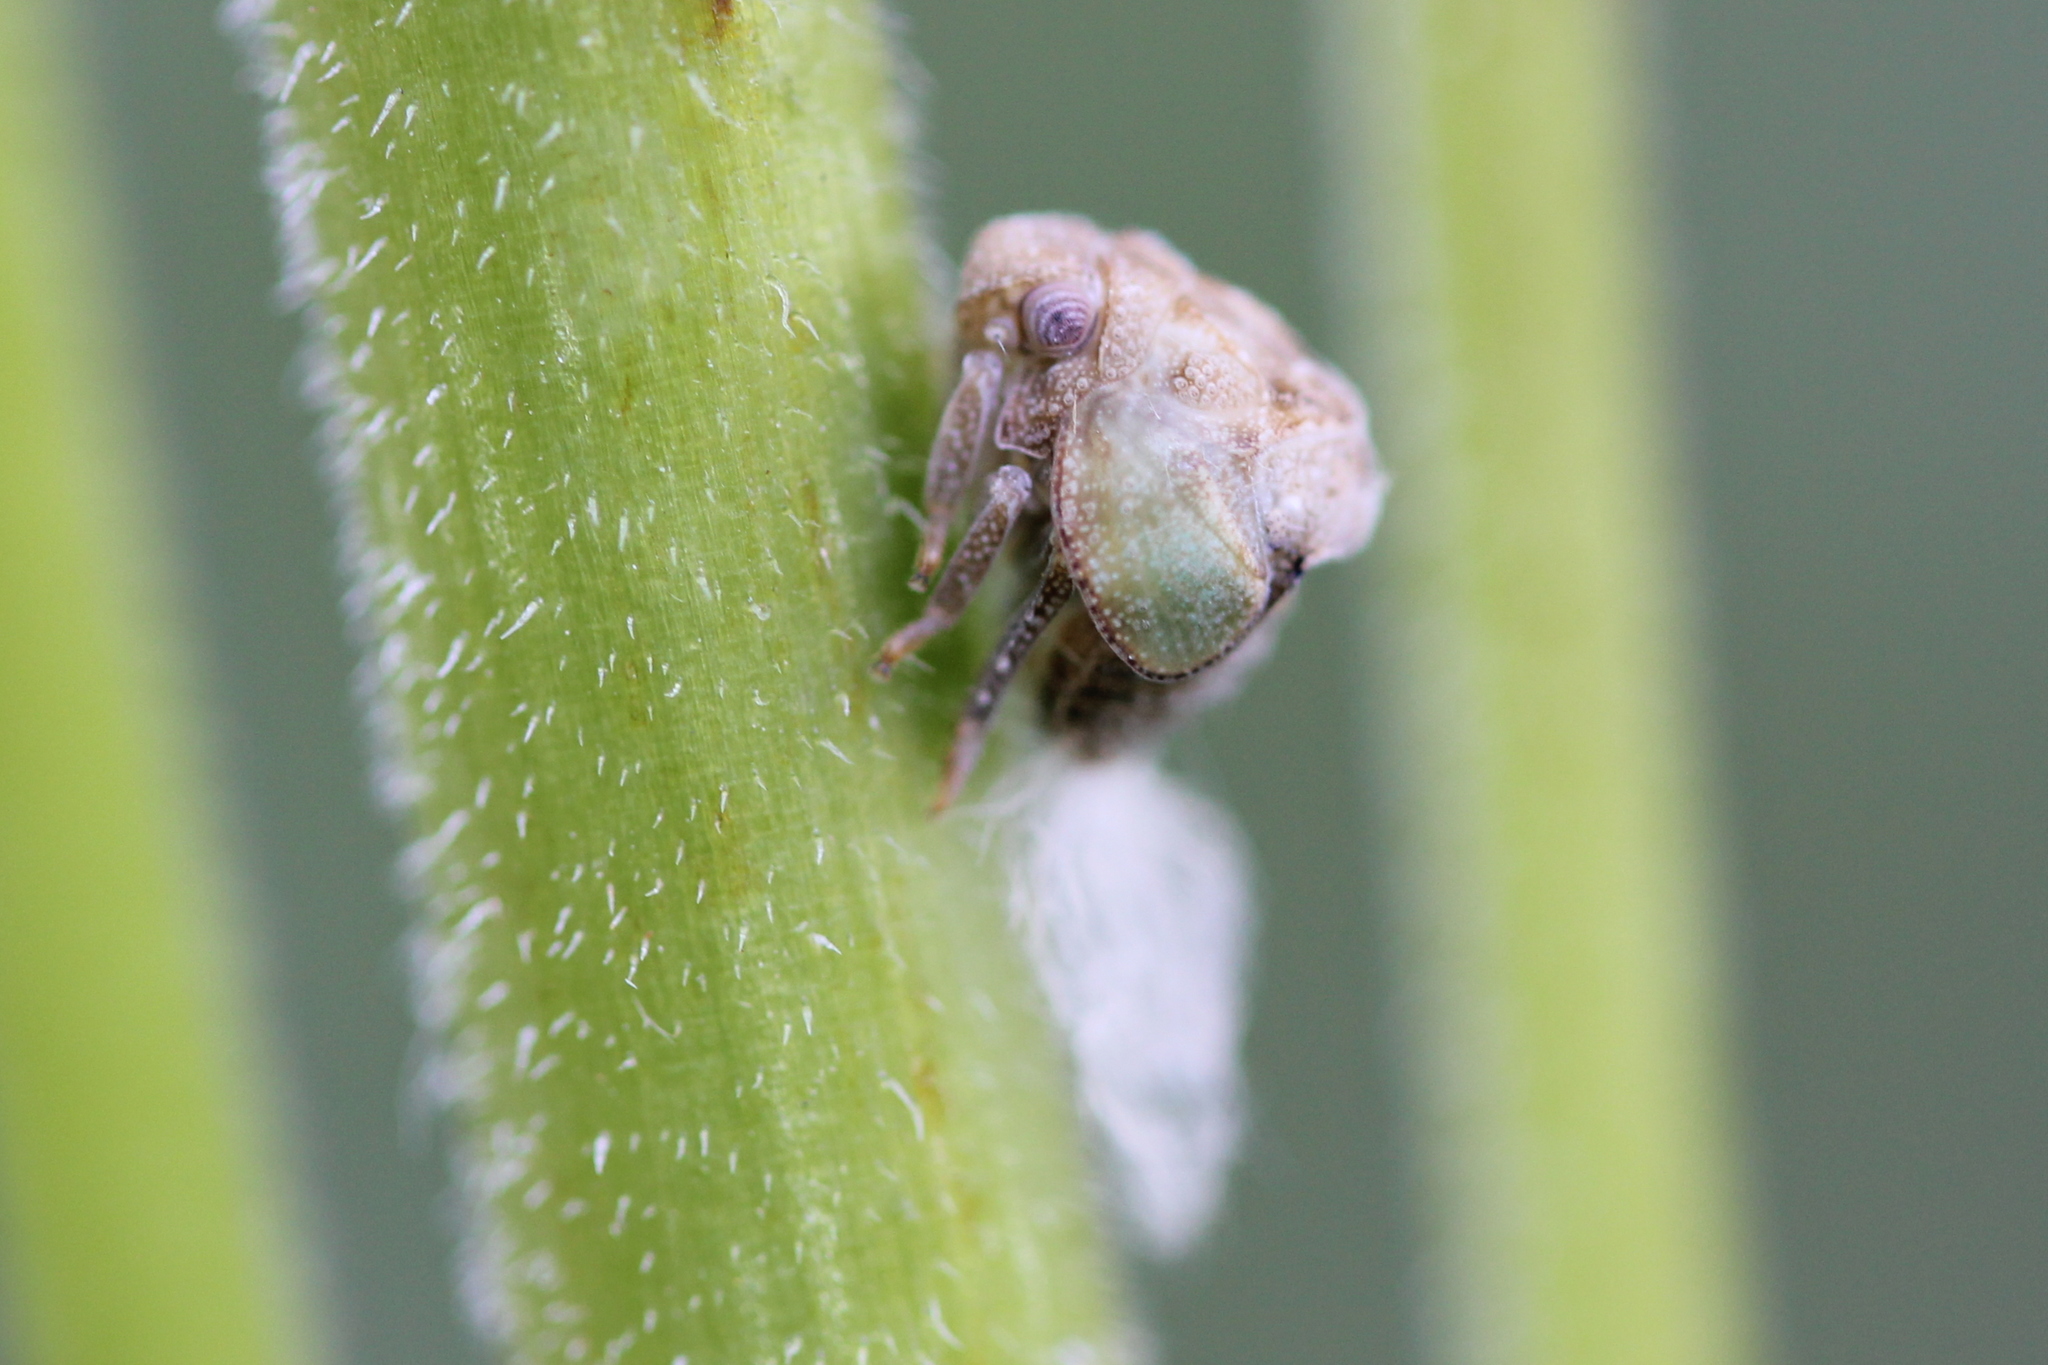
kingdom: Animalia
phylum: Arthropoda
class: Insecta
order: Hemiptera
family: Acanaloniidae
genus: Acanalonia
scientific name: Acanalonia conica
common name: Green cone-headed planthopper
